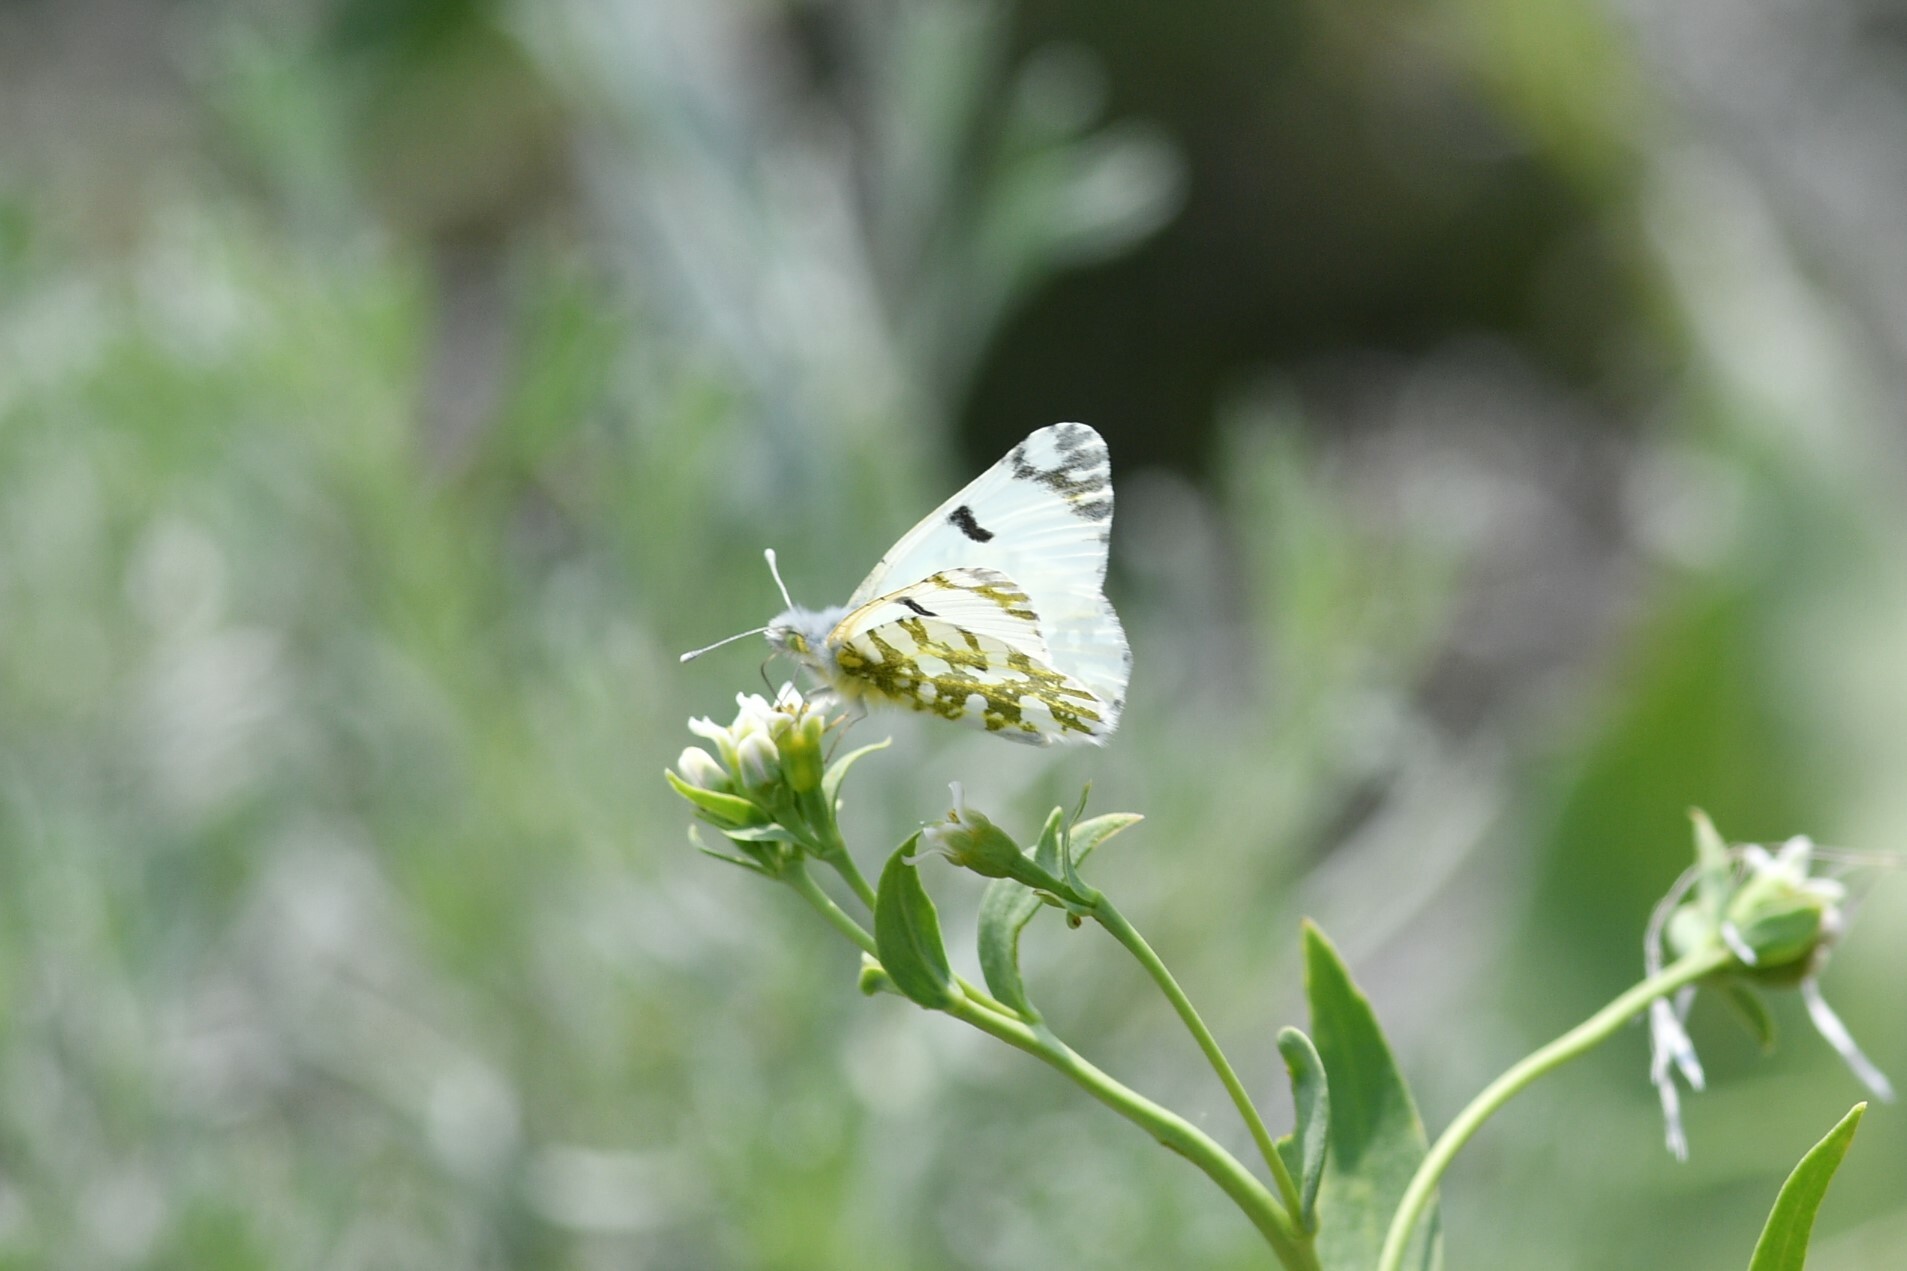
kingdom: Animalia
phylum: Arthropoda
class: Insecta
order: Lepidoptera
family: Pieridae
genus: Euchloe
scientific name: Euchloe ausonides
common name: Creamy marblewing
